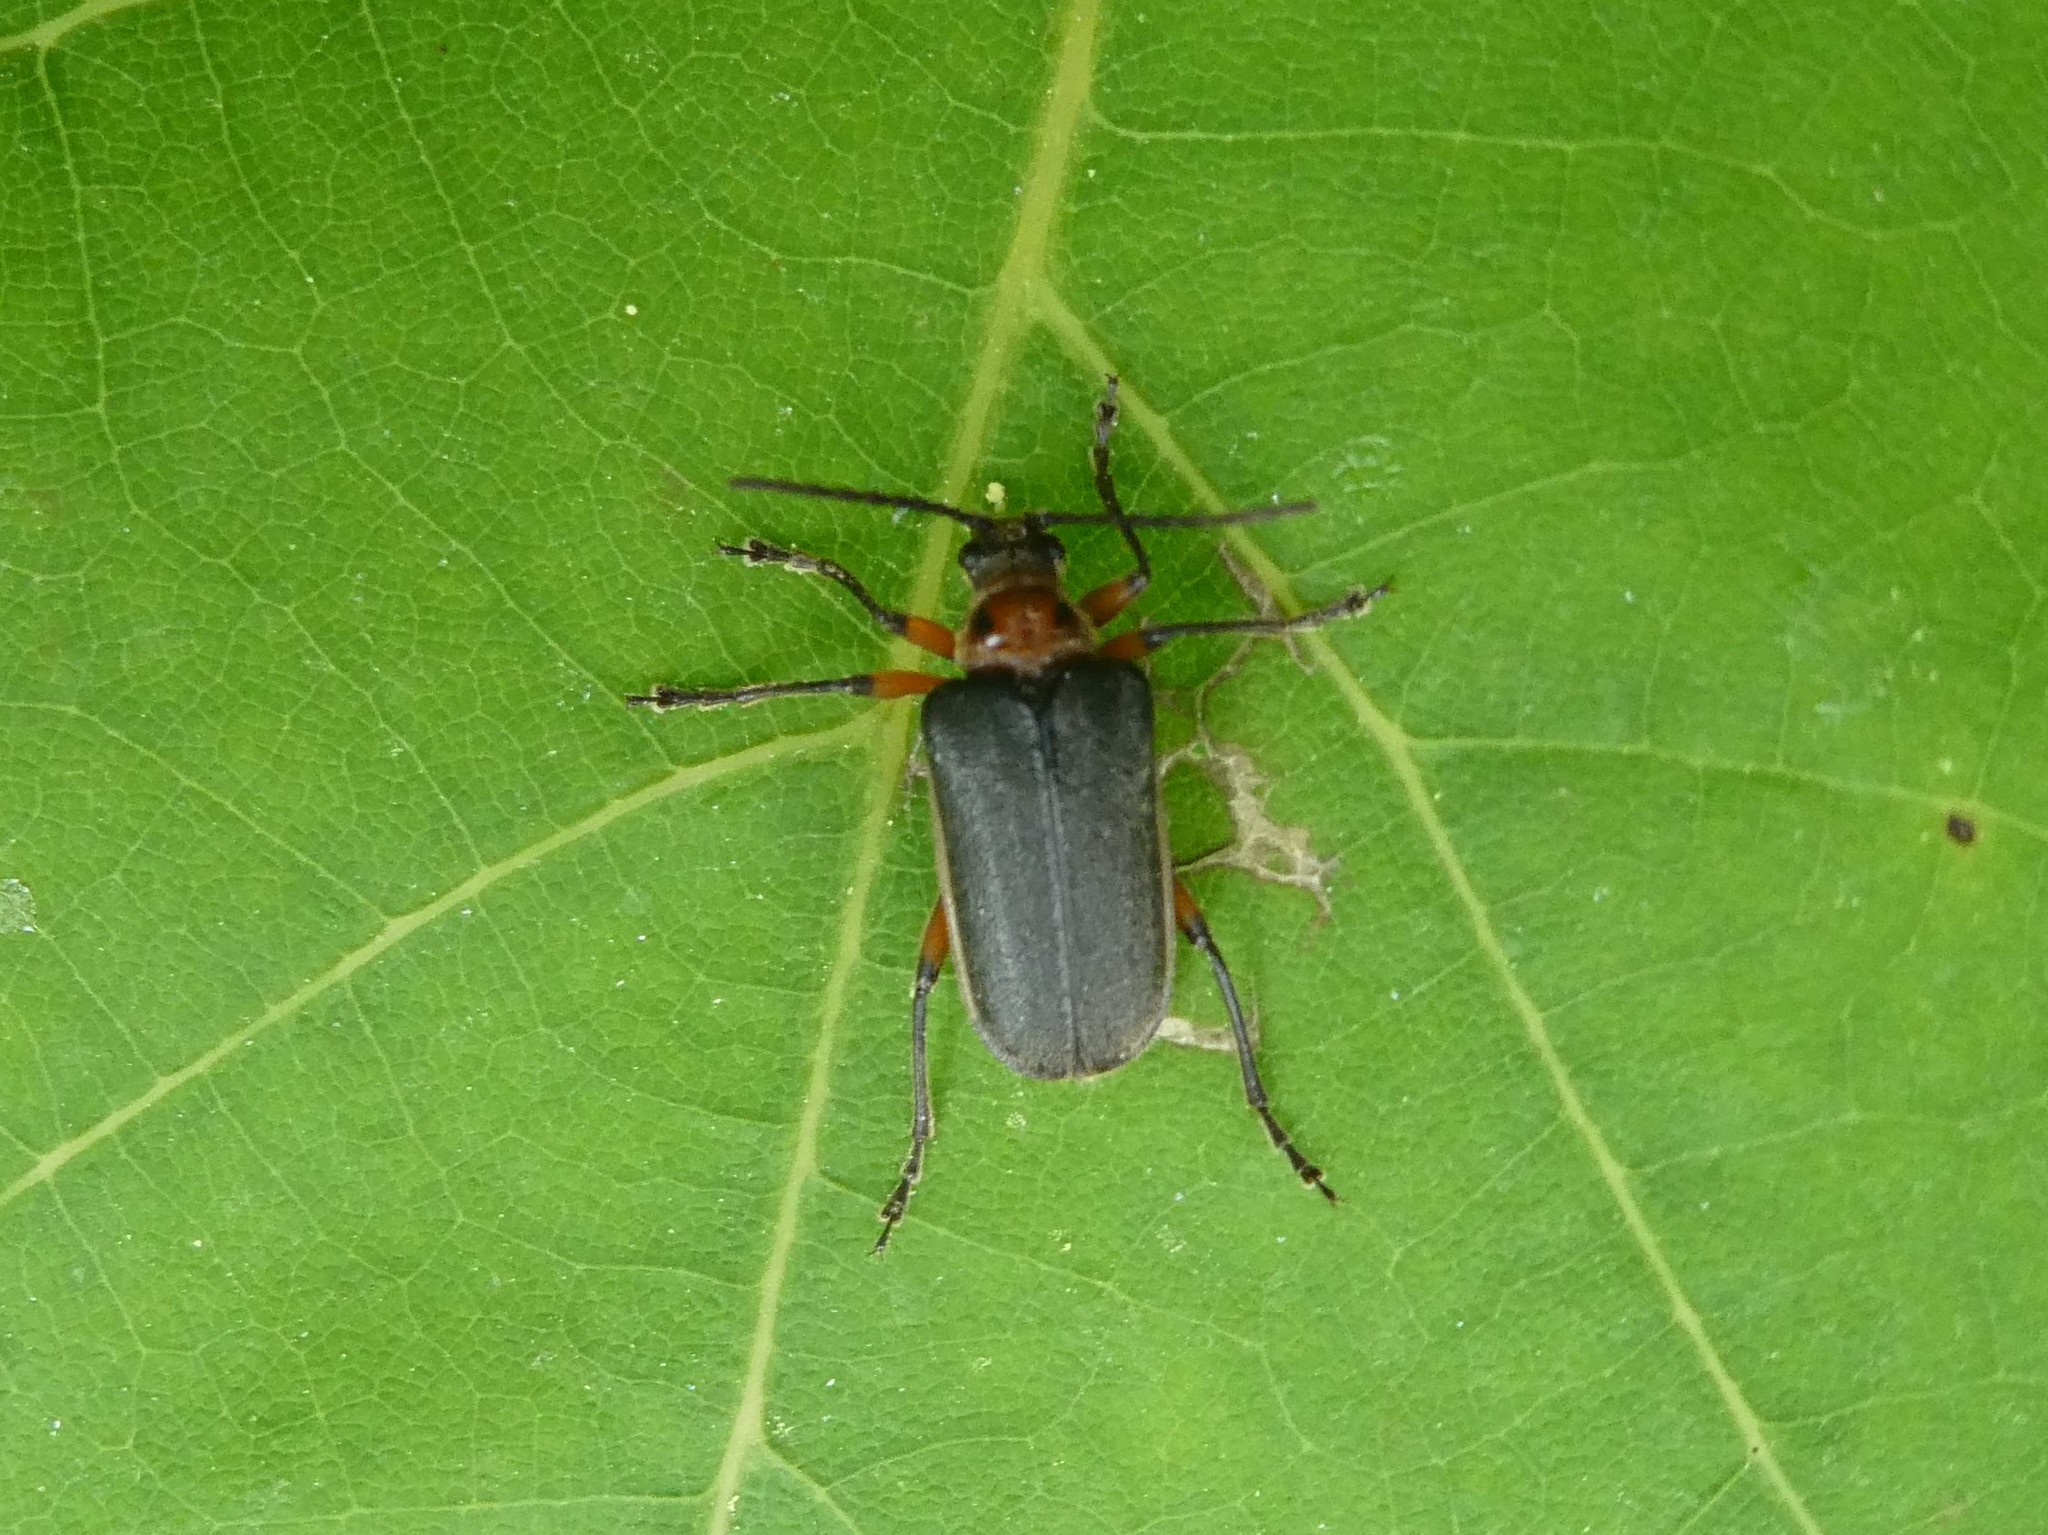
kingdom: Animalia
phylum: Arthropoda
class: Insecta
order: Coleoptera
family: Cerambycidae
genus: Brachysomida
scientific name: Brachysomida bivittata
